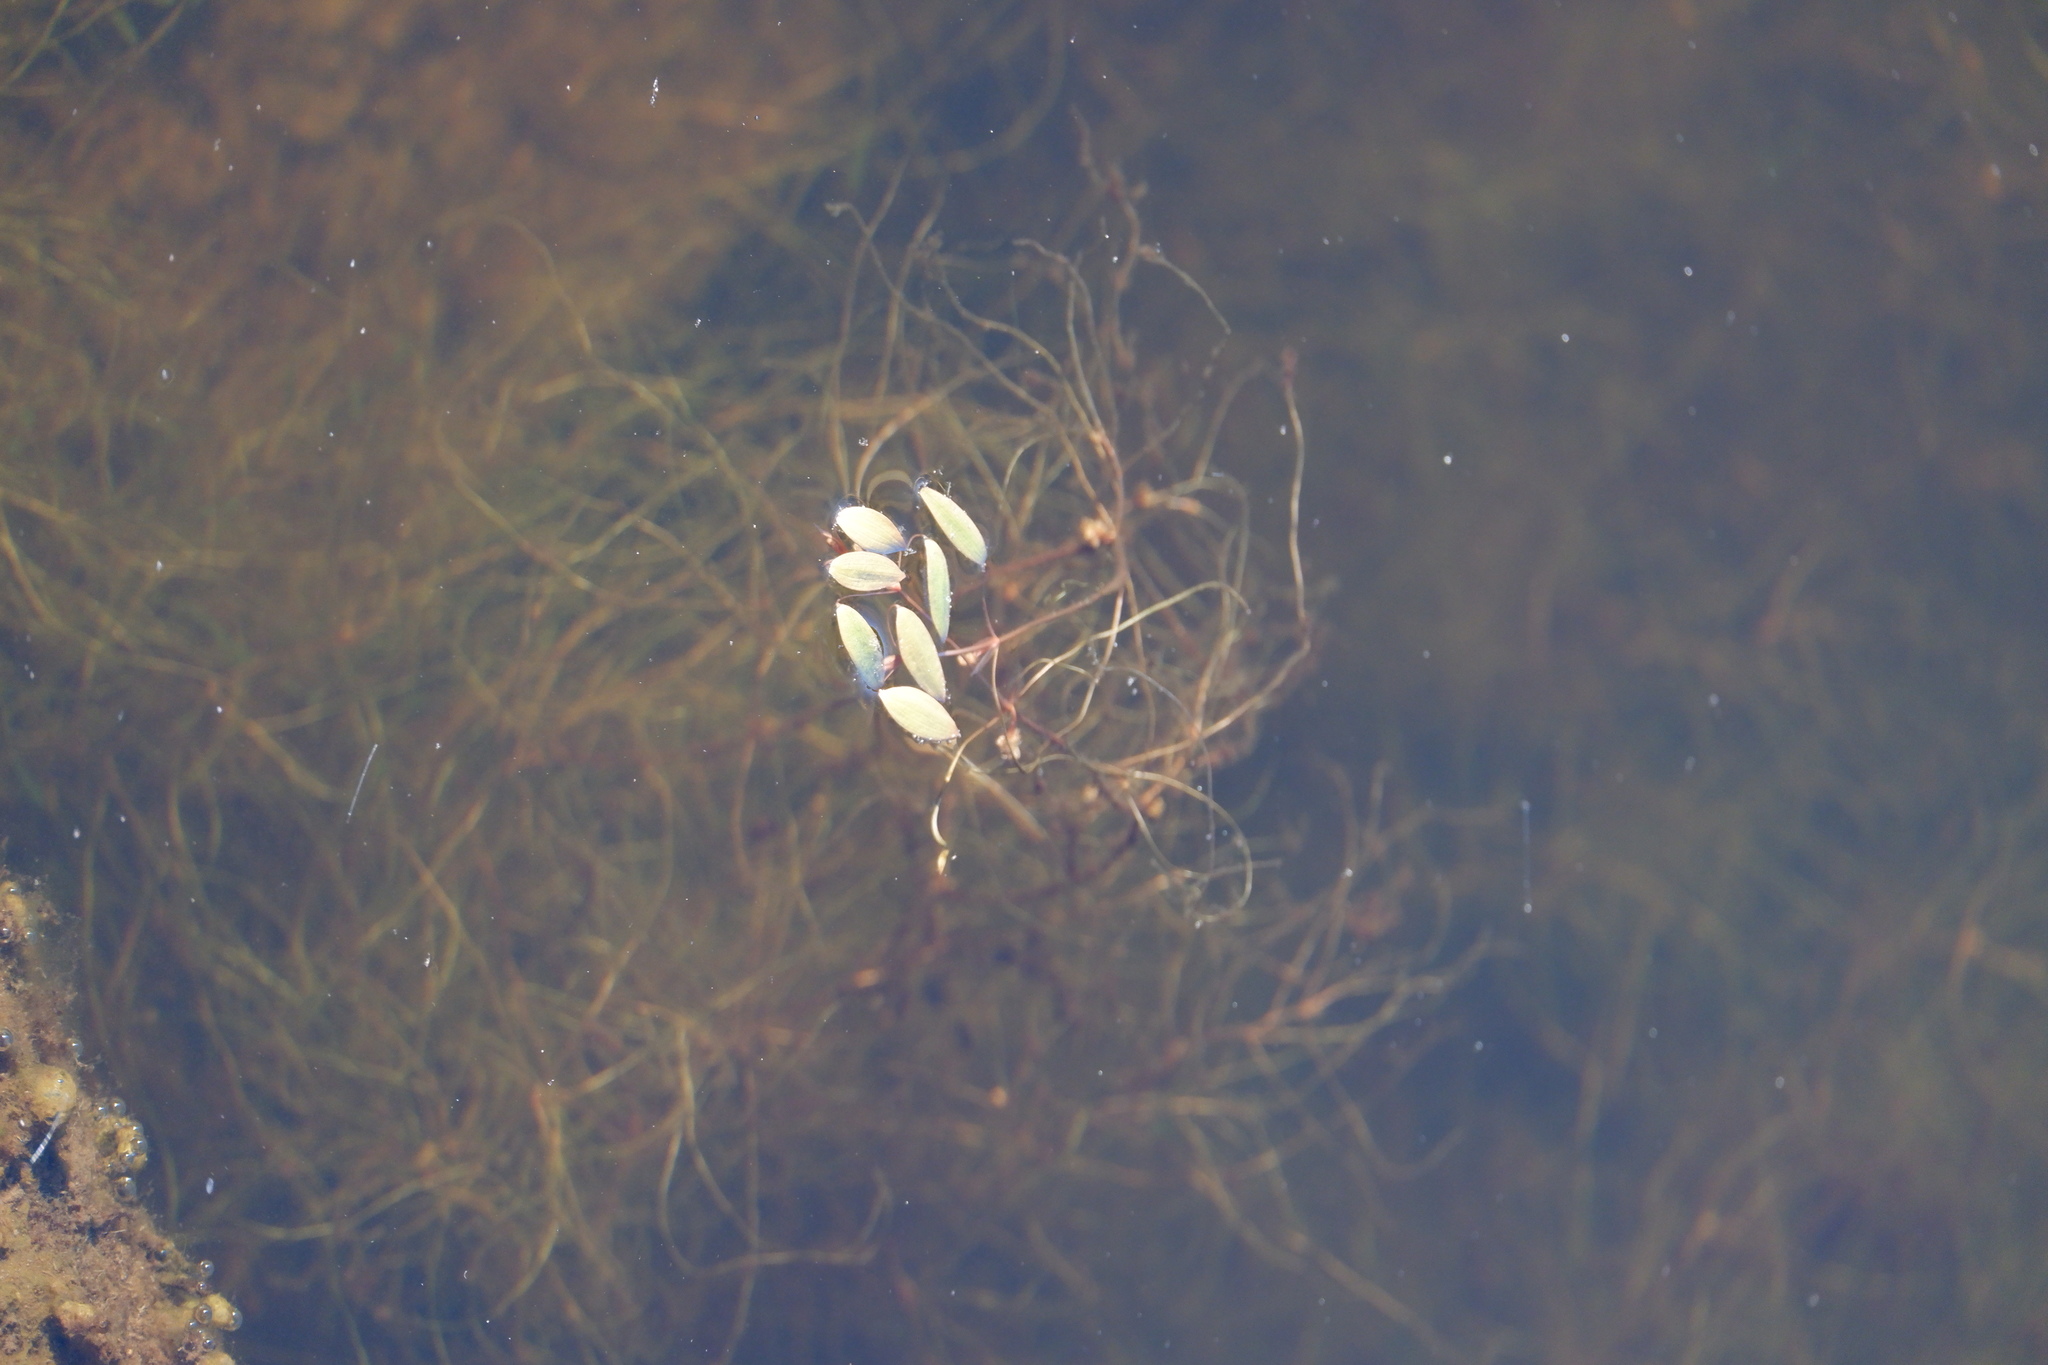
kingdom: Plantae
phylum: Tracheophyta
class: Liliopsida
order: Alismatales
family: Potamogetonaceae
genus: Potamogeton
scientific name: Potamogeton spirillus
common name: Northern snail-seed pondweed
